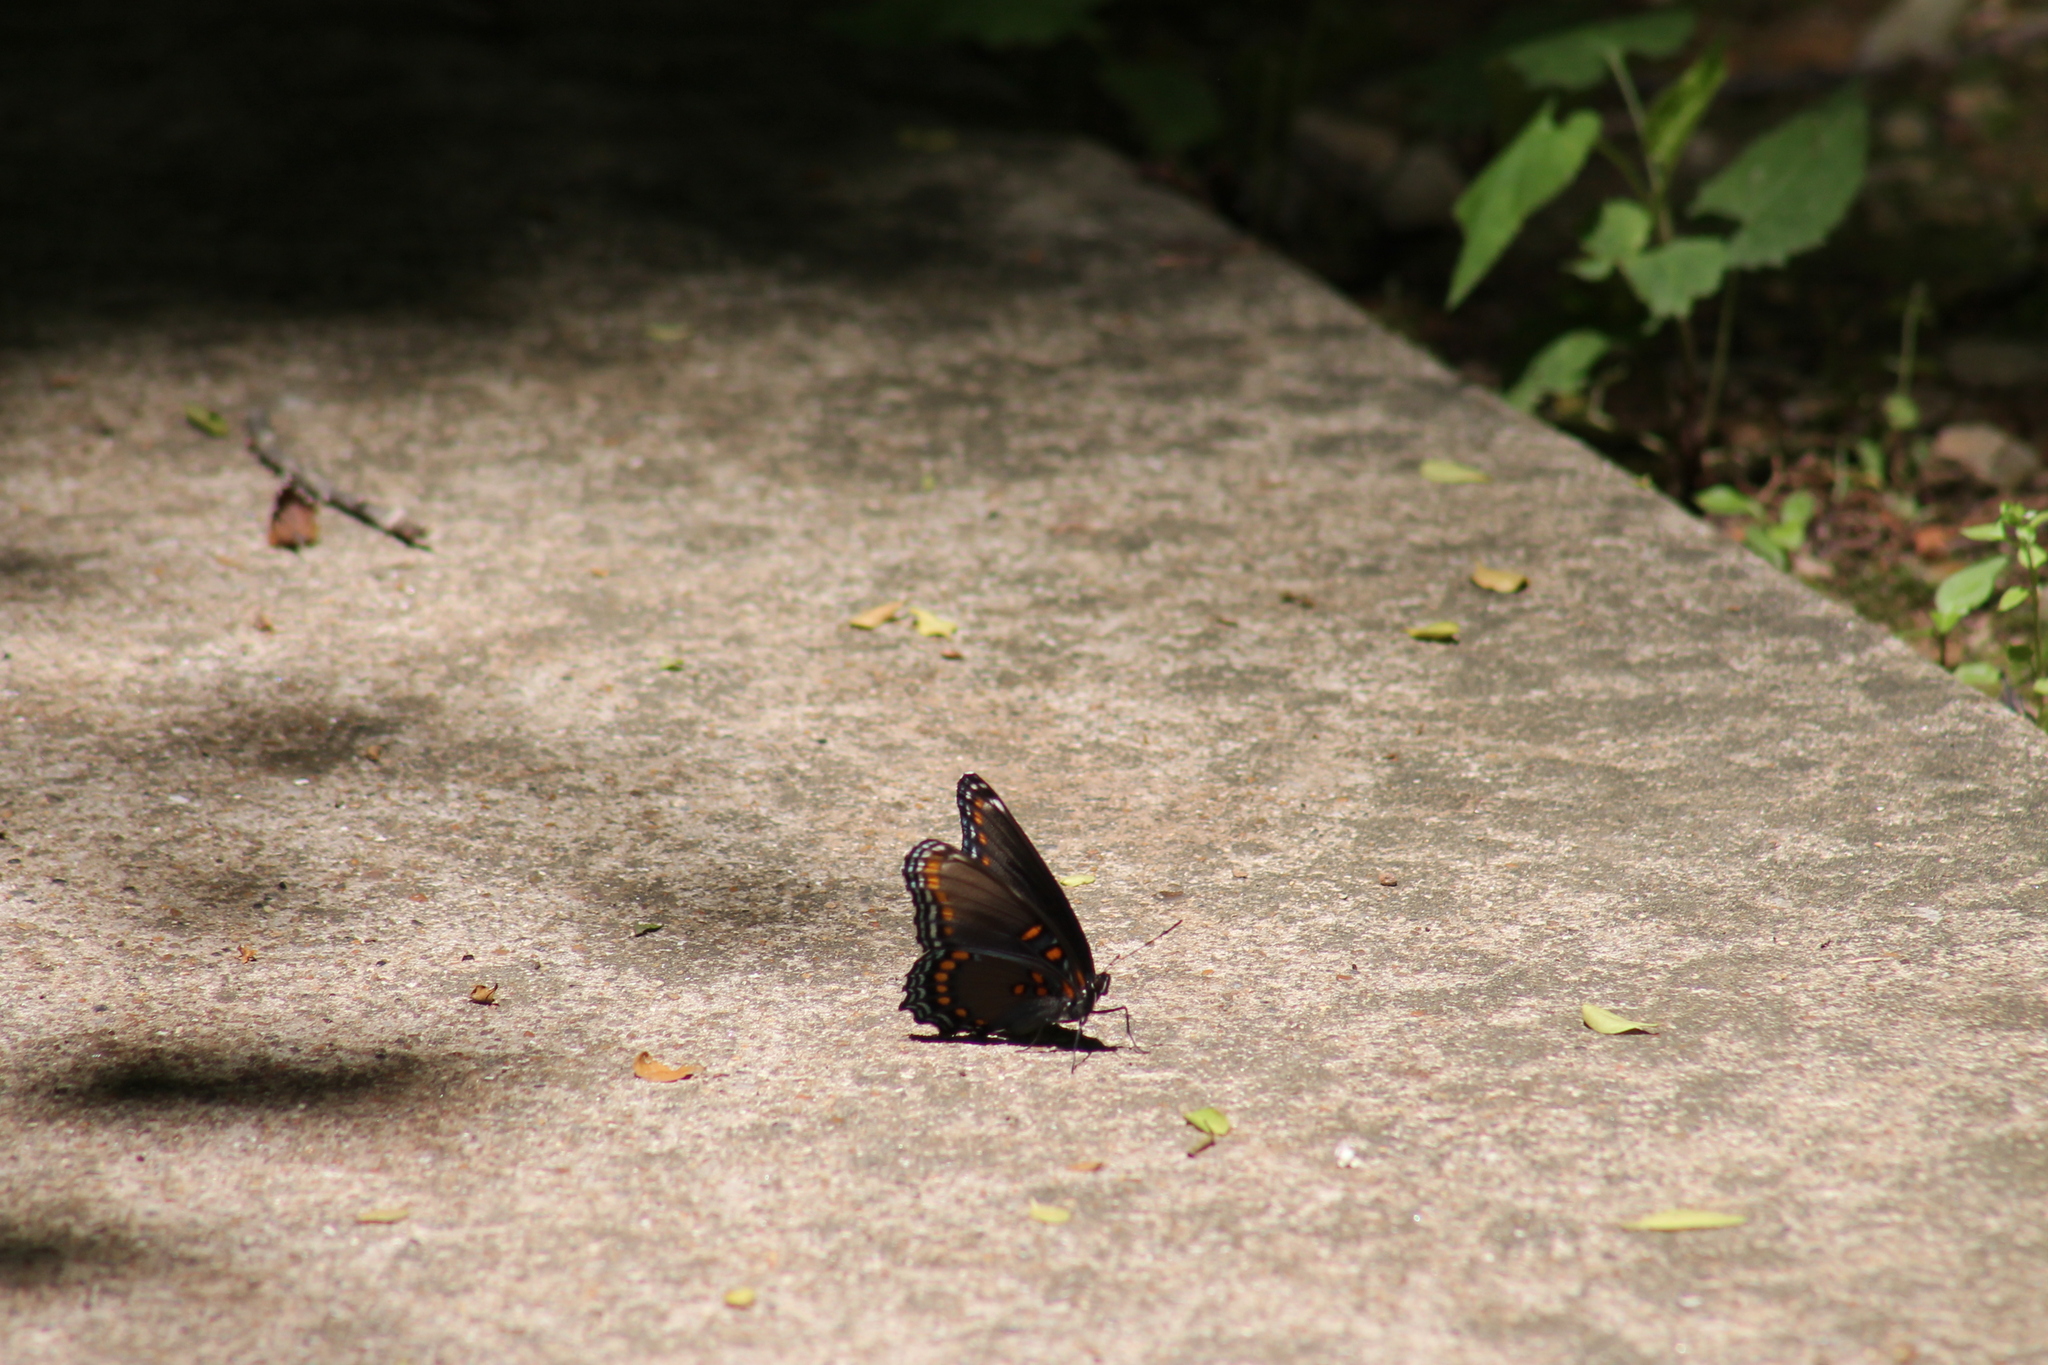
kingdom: Animalia
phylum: Arthropoda
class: Insecta
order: Lepidoptera
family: Nymphalidae
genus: Limenitis
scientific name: Limenitis arthemis
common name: Red-spotted admiral
